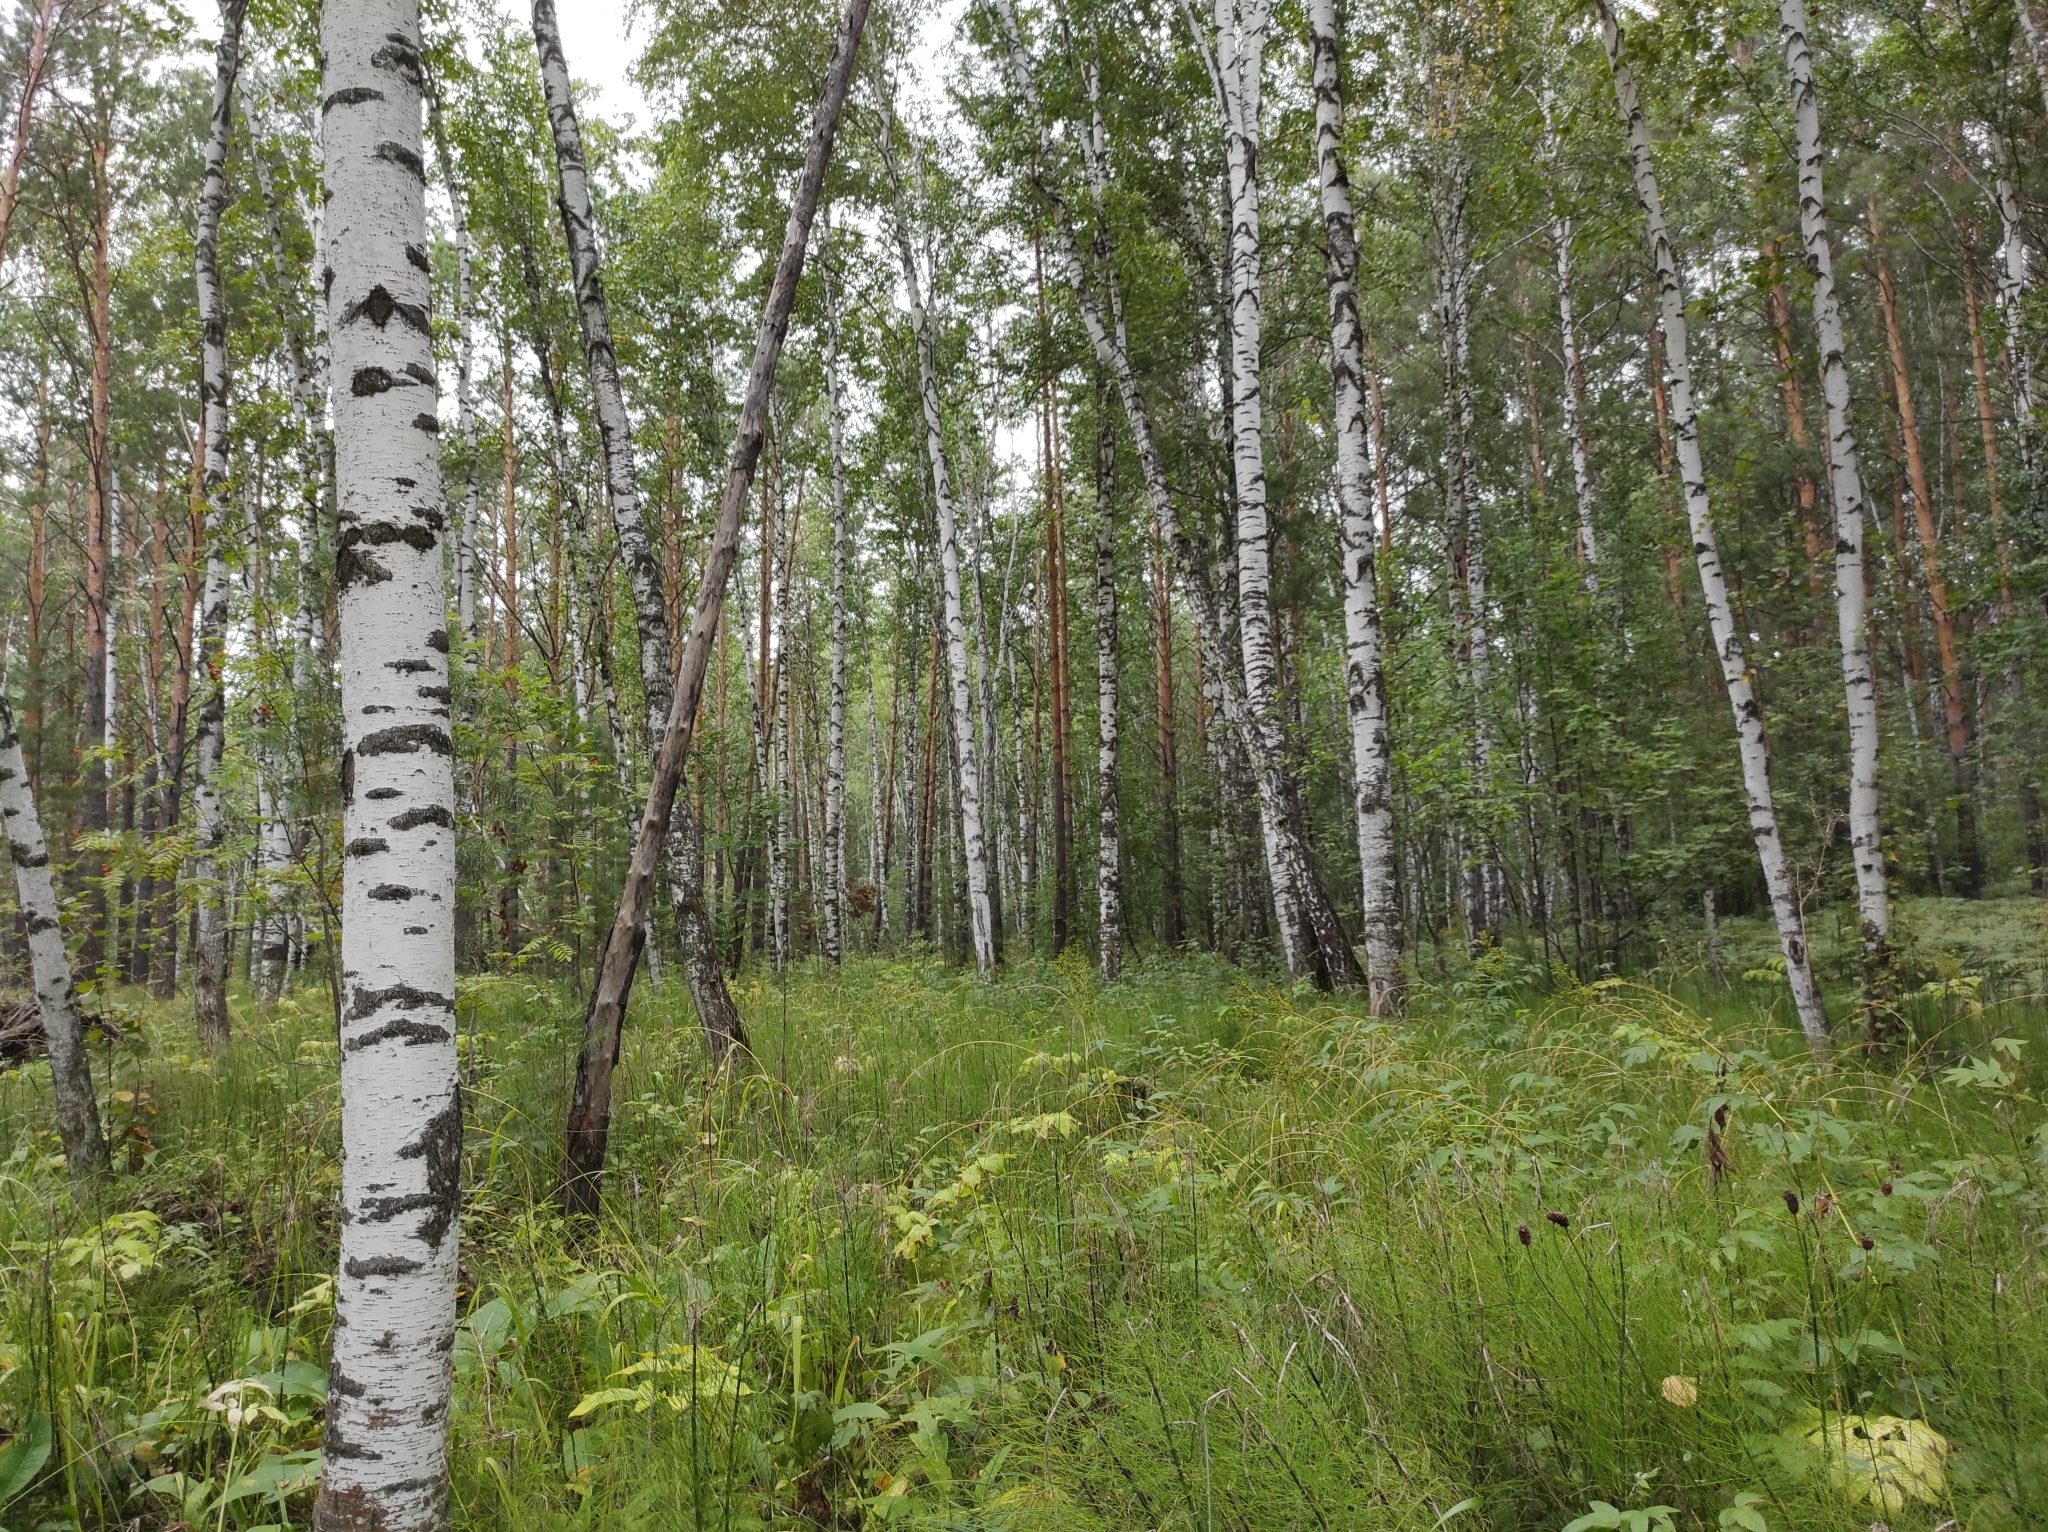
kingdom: Plantae
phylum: Tracheophyta
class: Magnoliopsida
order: Fagales
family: Betulaceae
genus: Betula
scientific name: Betula pubescens
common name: Downy birch
